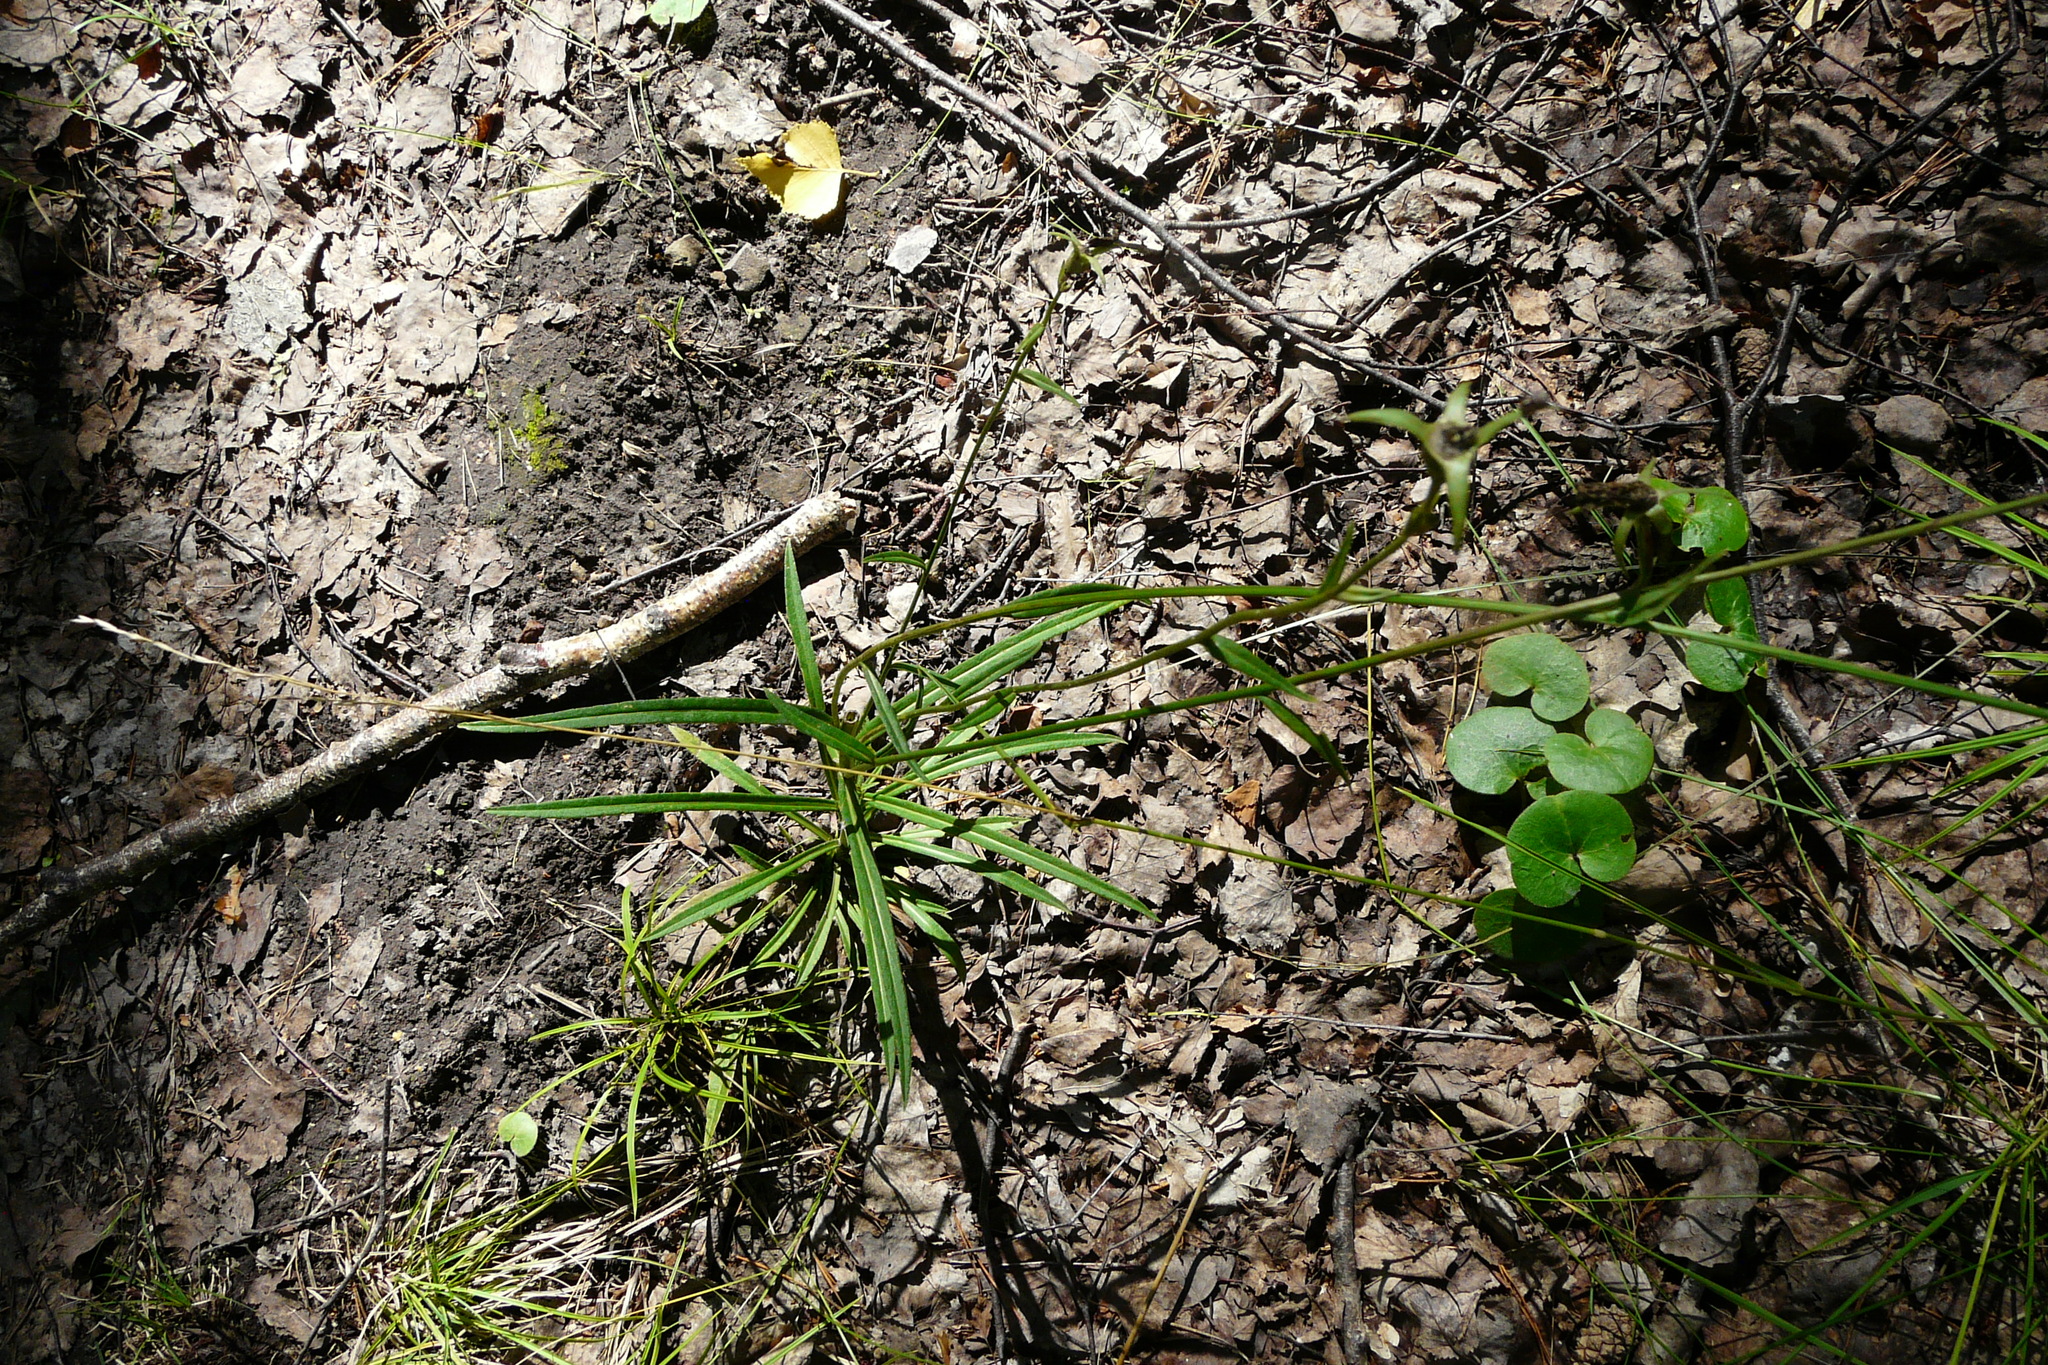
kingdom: Plantae
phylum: Tracheophyta
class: Magnoliopsida
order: Asterales
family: Campanulaceae
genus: Campanula
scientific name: Campanula persicifolia
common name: Peach-leaved bellflower
